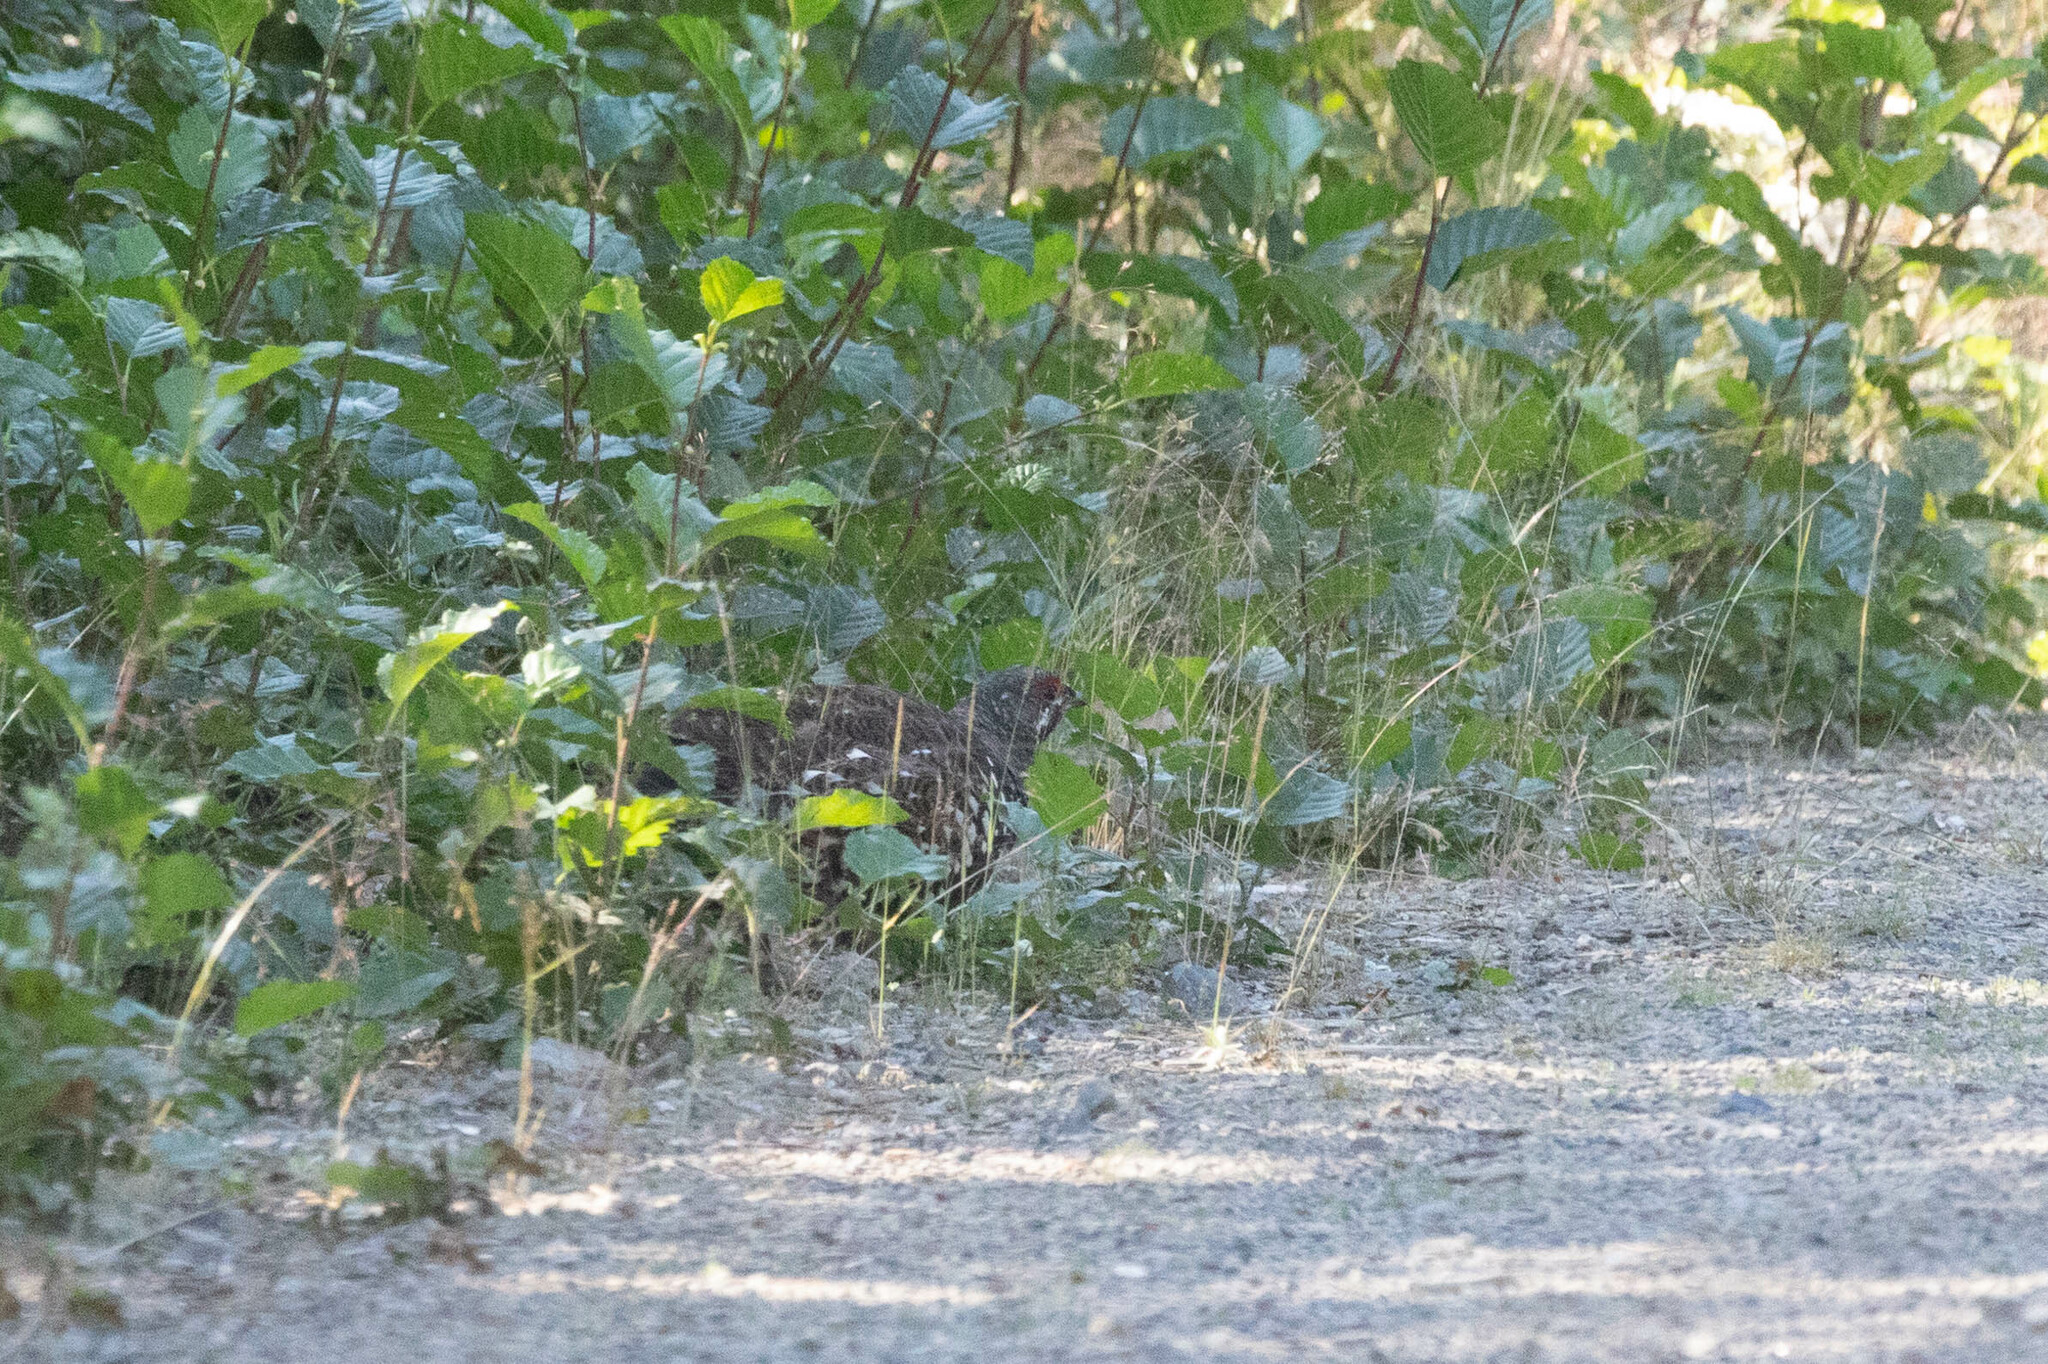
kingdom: Animalia
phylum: Chordata
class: Aves
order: Galliformes
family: Phasianidae
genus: Canachites
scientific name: Canachites canadensis
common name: Spruce grouse
